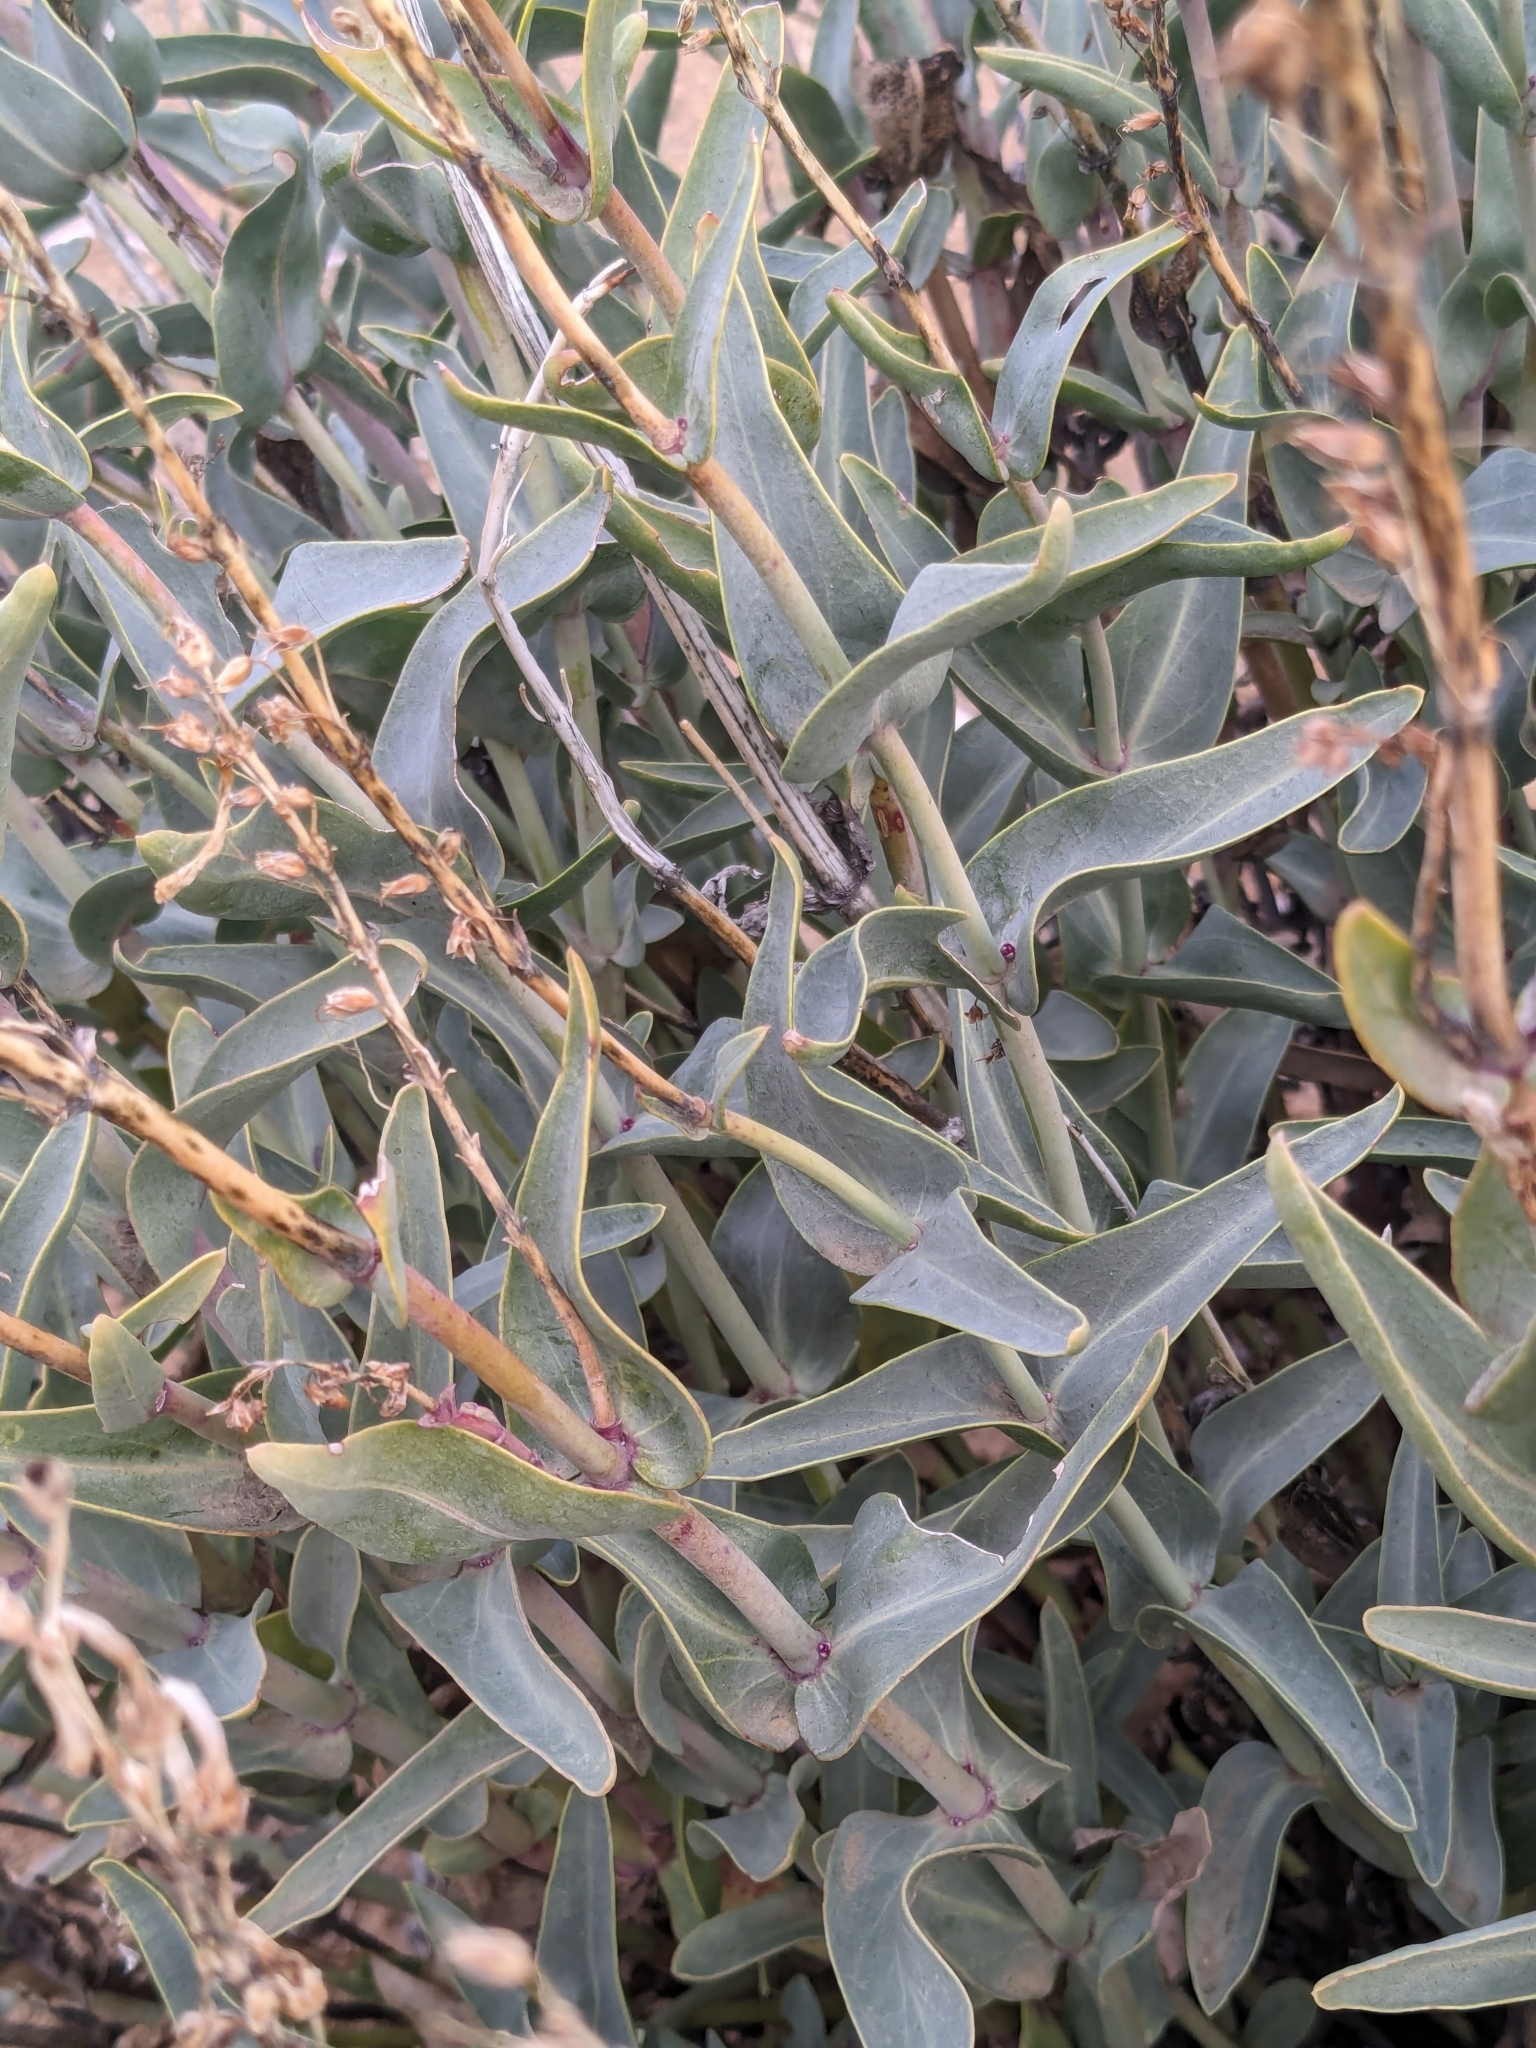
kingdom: Plantae
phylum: Tracheophyta
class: Magnoliopsida
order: Lamiales
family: Plantaginaceae
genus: Penstemon
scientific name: Penstemon centranthifolius
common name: Scarlet bugler
